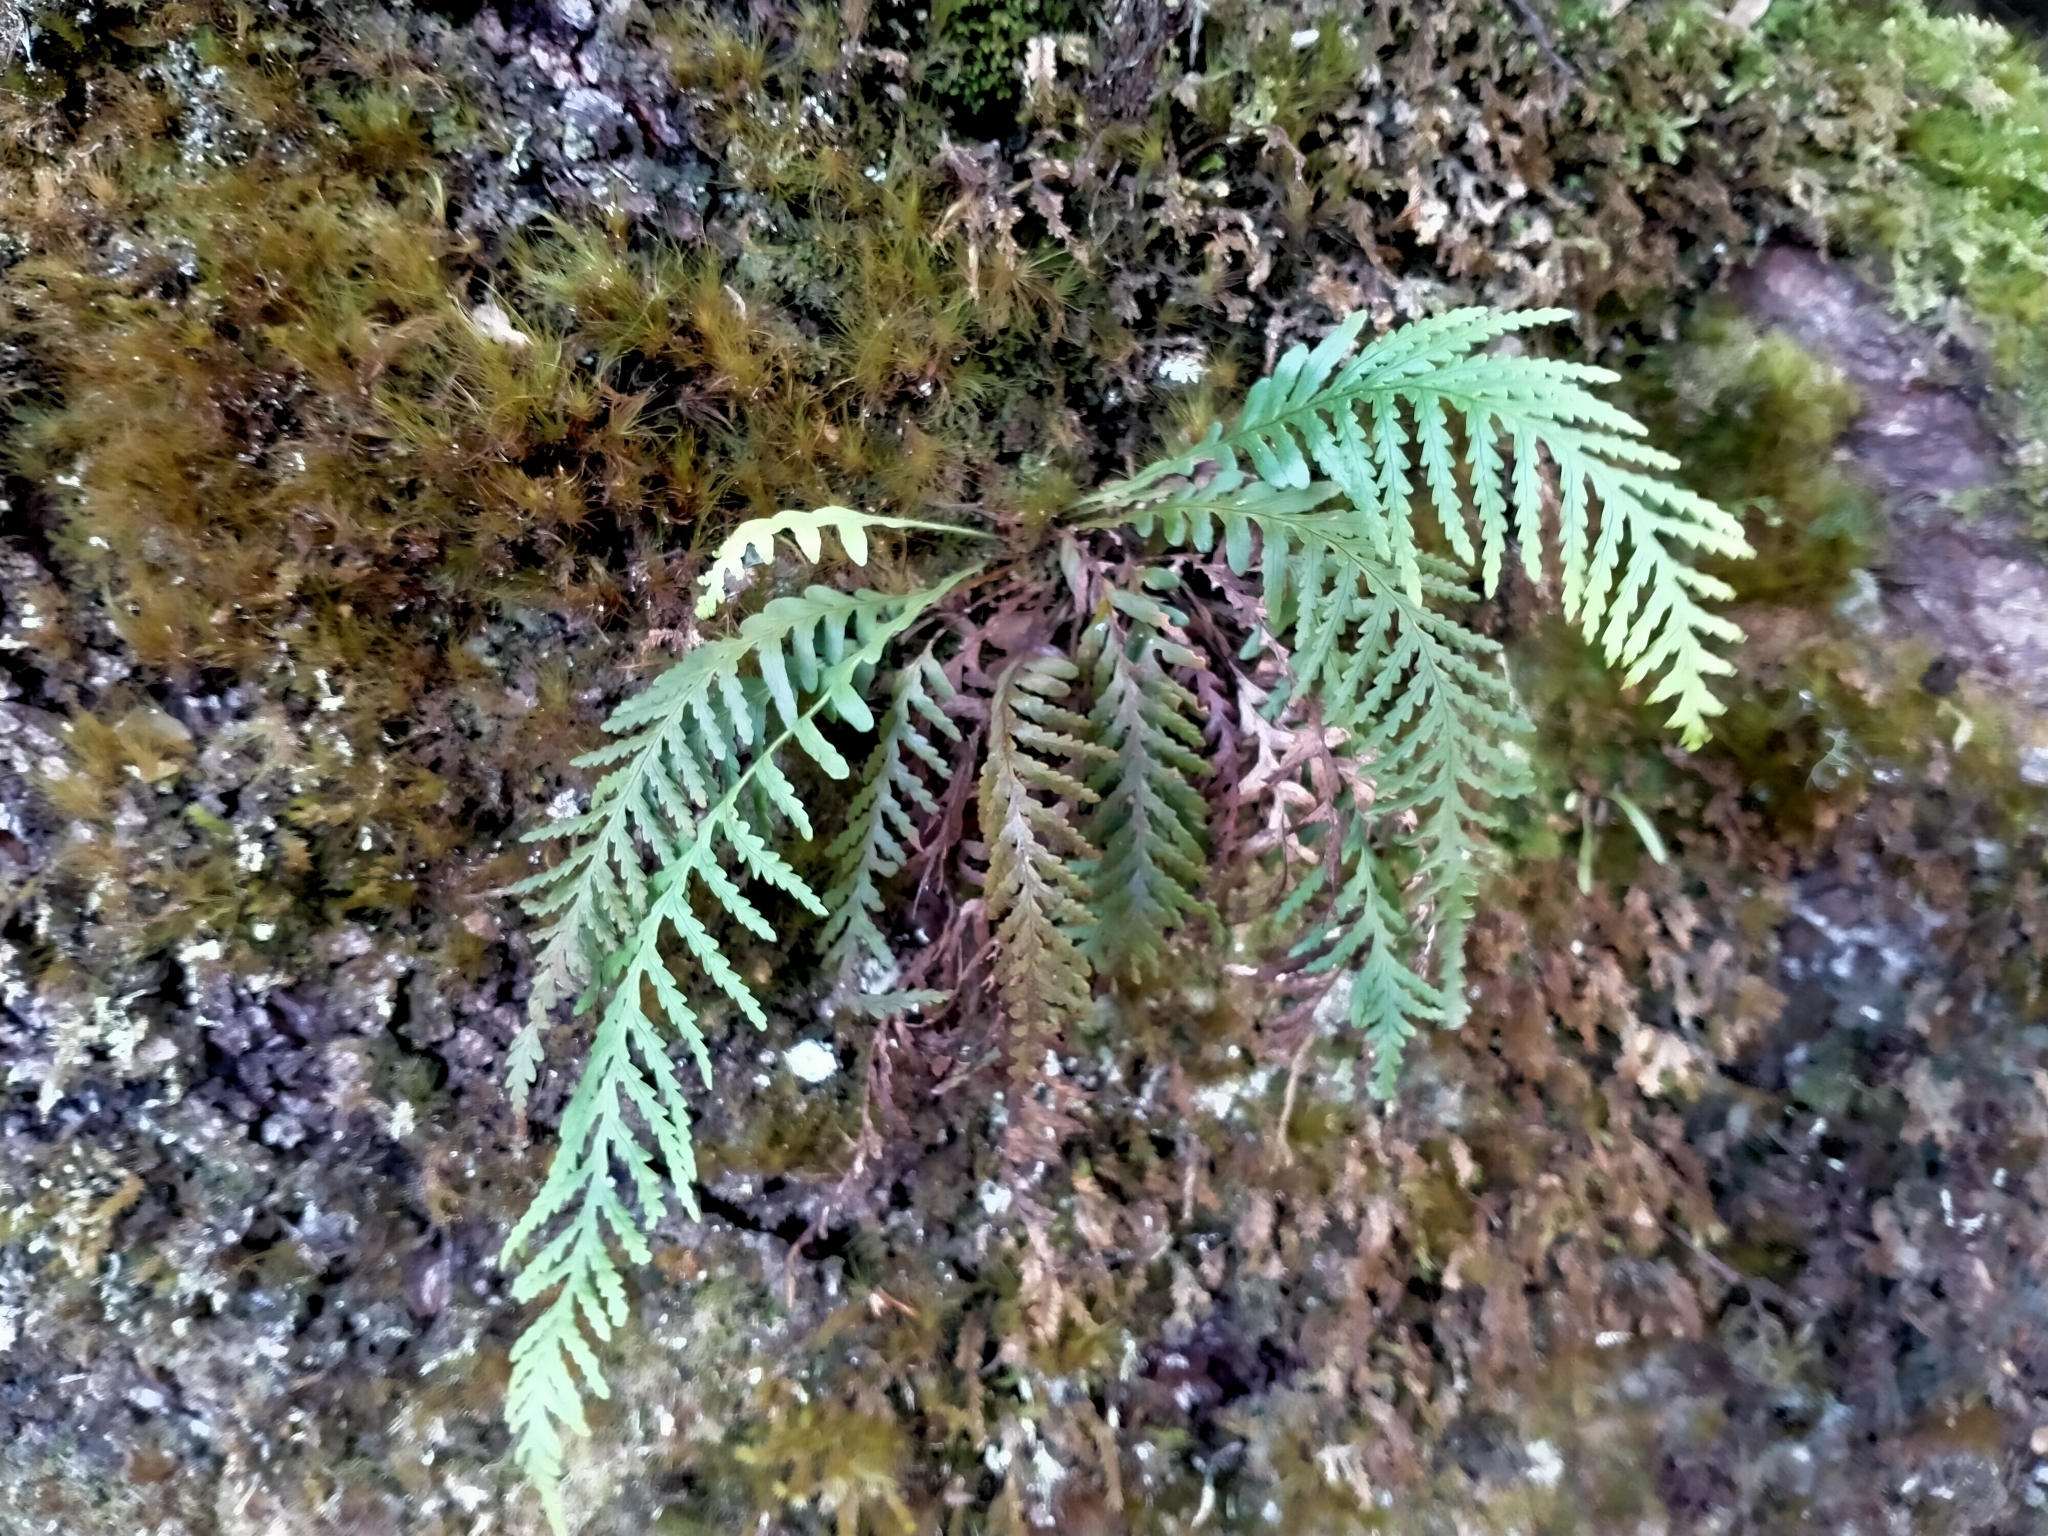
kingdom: Plantae
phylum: Tracheophyta
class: Polypodiopsida
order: Polypodiales
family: Polypodiaceae
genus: Notogrammitis
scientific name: Notogrammitis heterophylla
